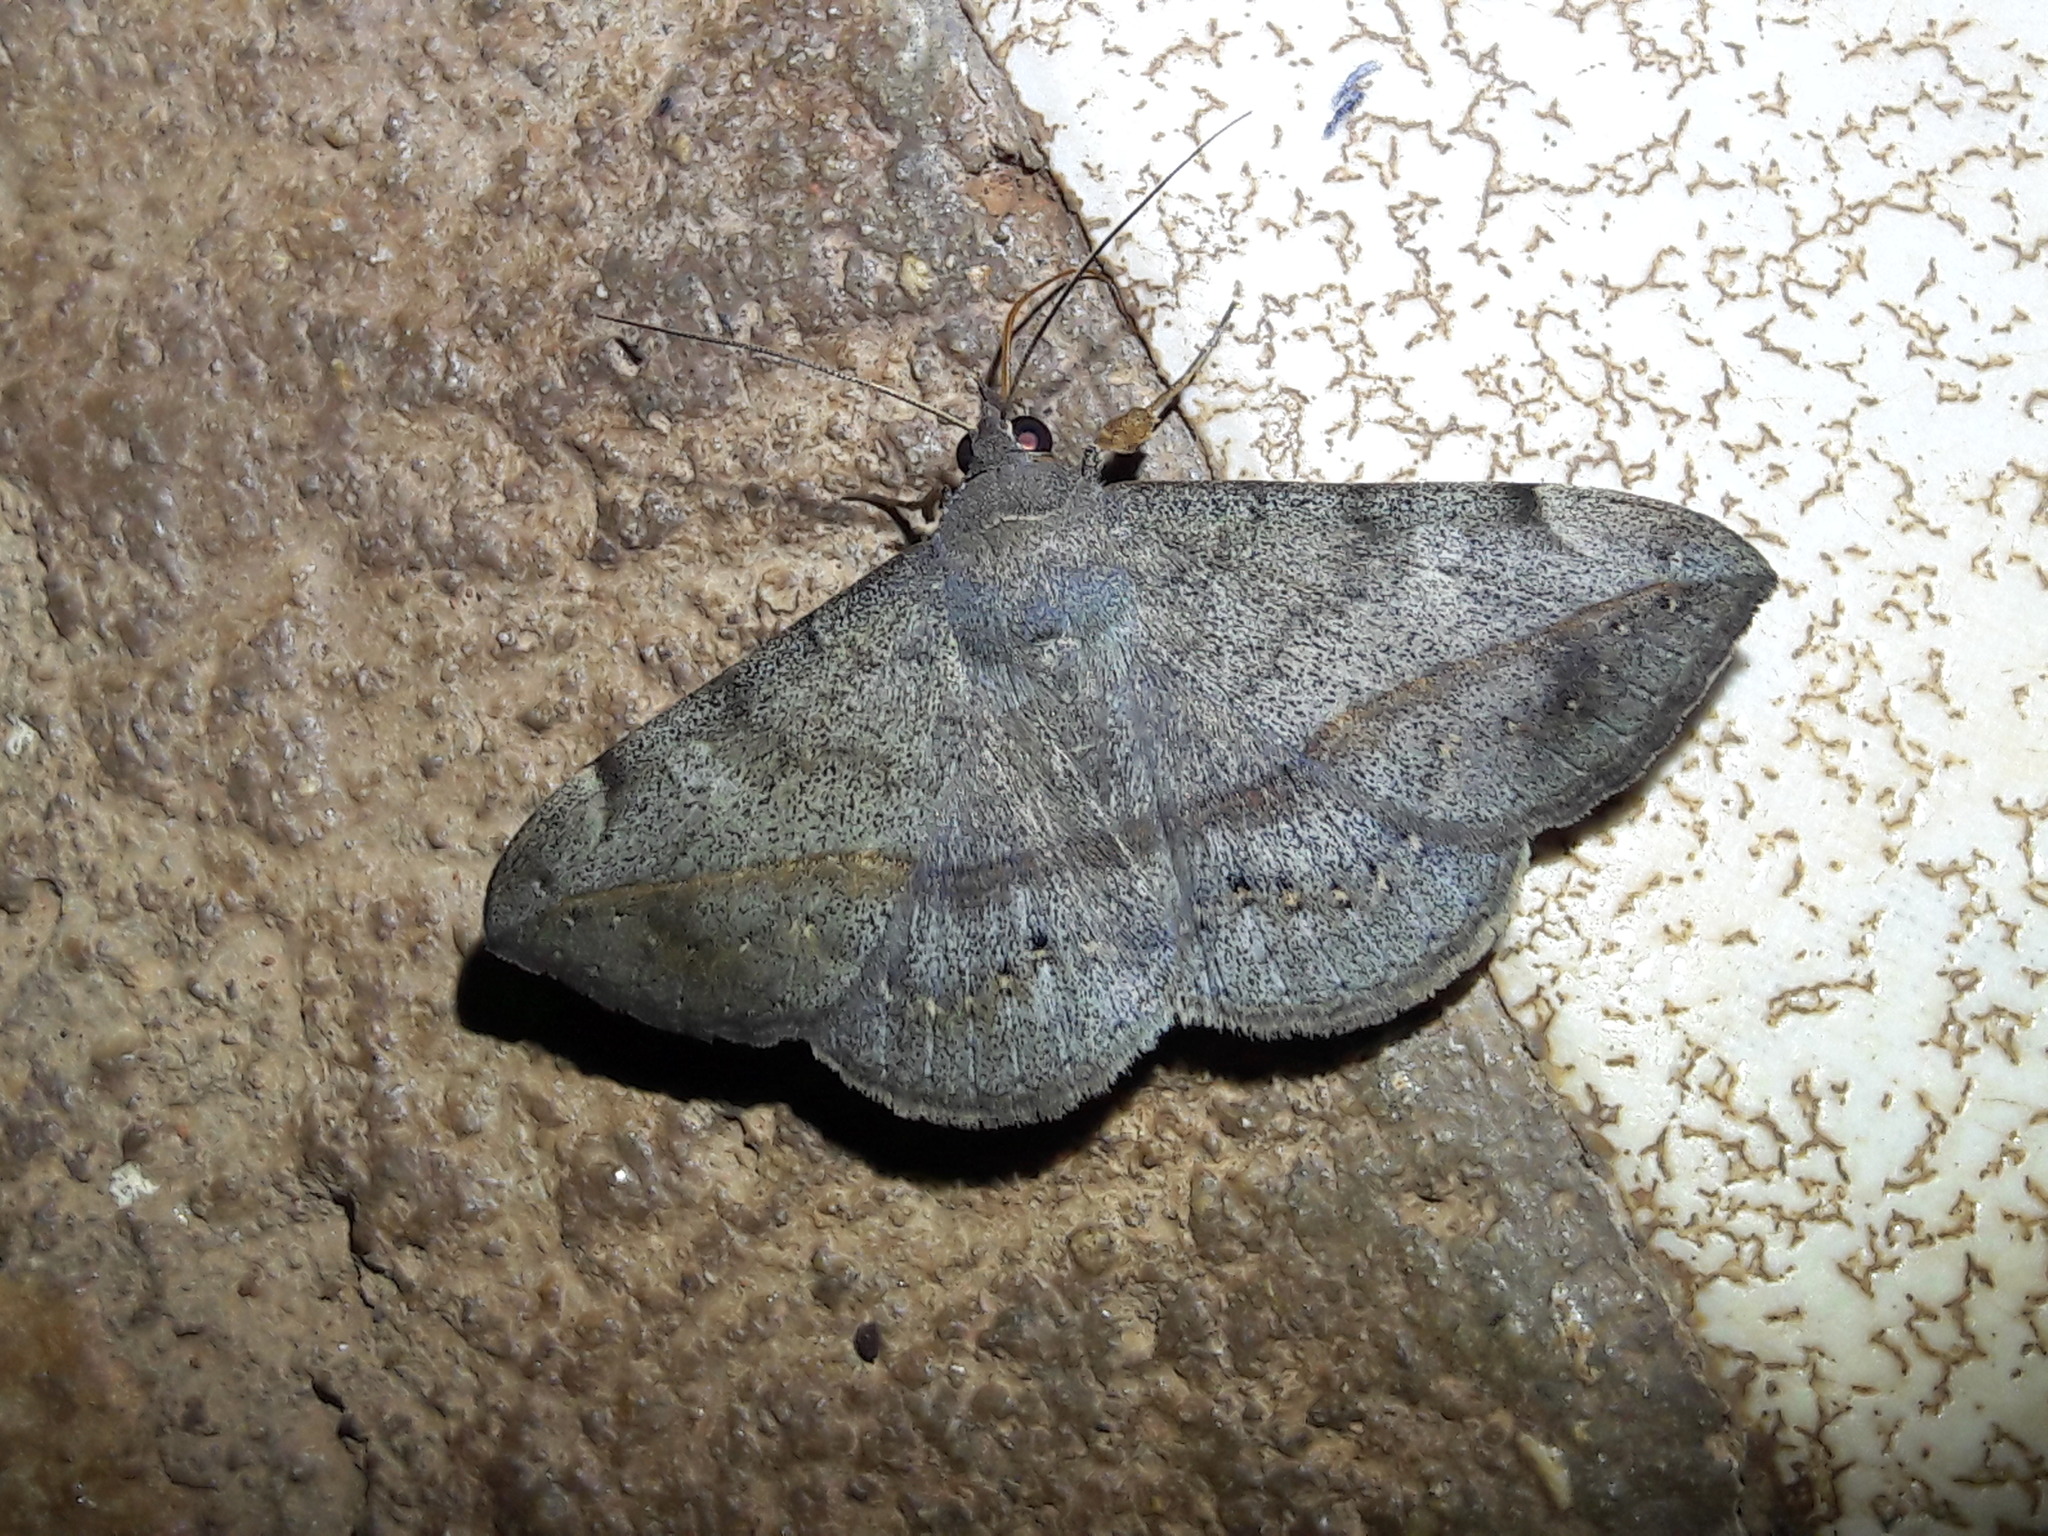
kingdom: Animalia
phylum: Arthropoda
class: Insecta
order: Lepidoptera
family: Erebidae
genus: Anticarsia
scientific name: Anticarsia gemmatalis
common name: Cutworm moth
